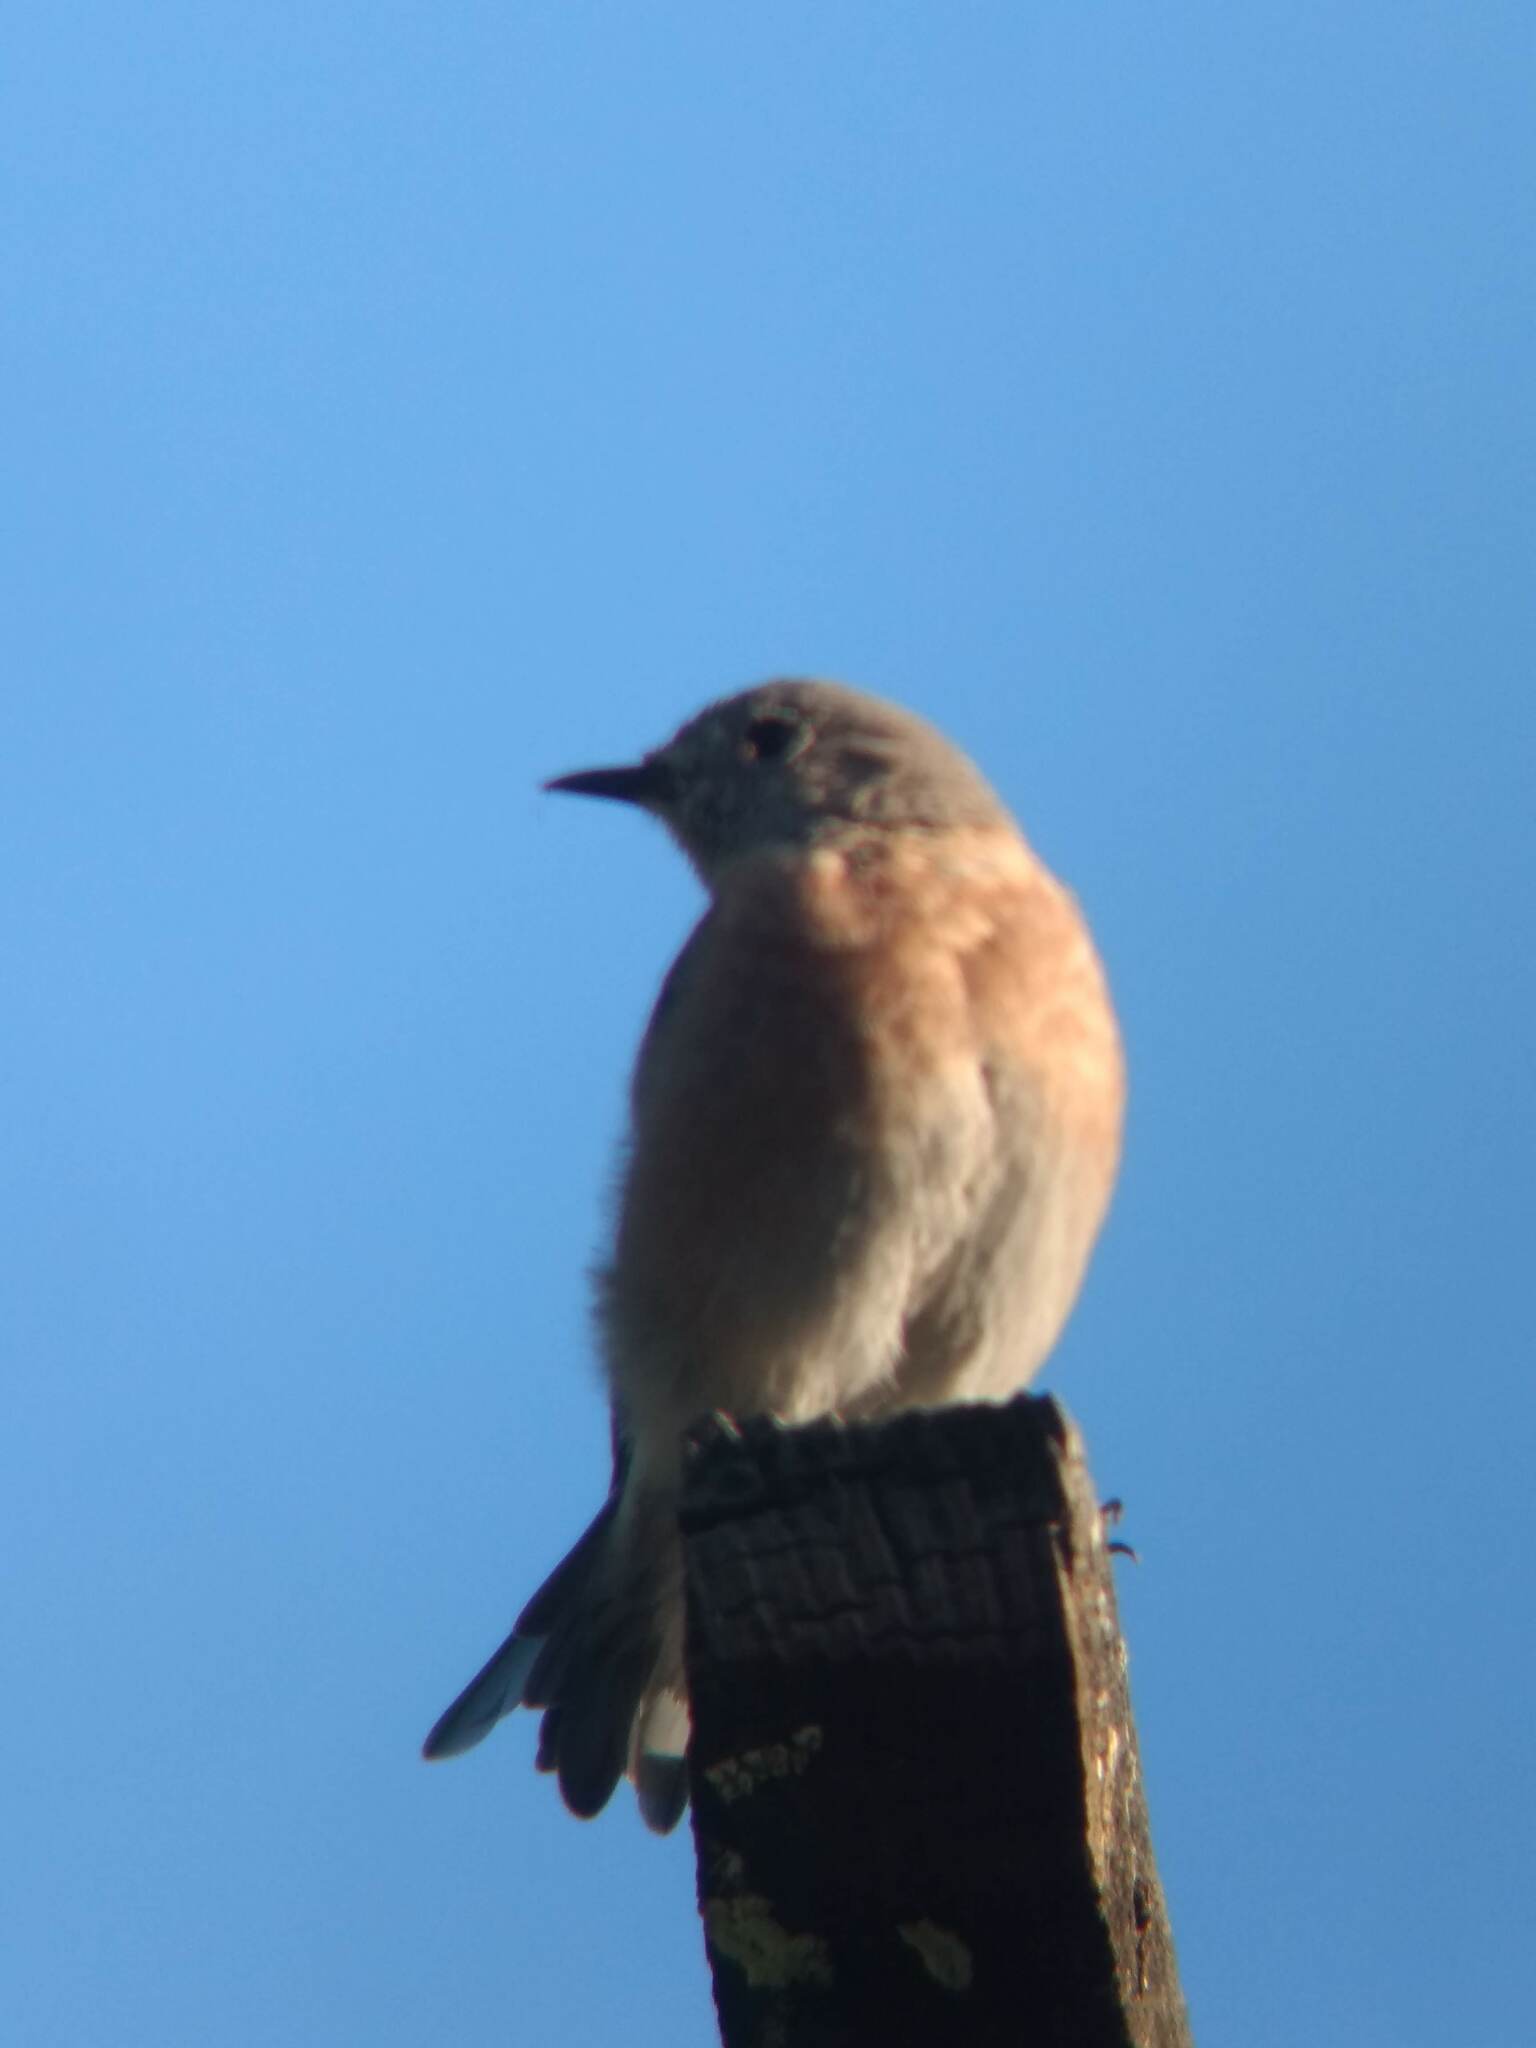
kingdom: Animalia
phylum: Chordata
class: Aves
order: Passeriformes
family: Turdidae
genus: Sialia
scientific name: Sialia mexicana
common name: Western bluebird
